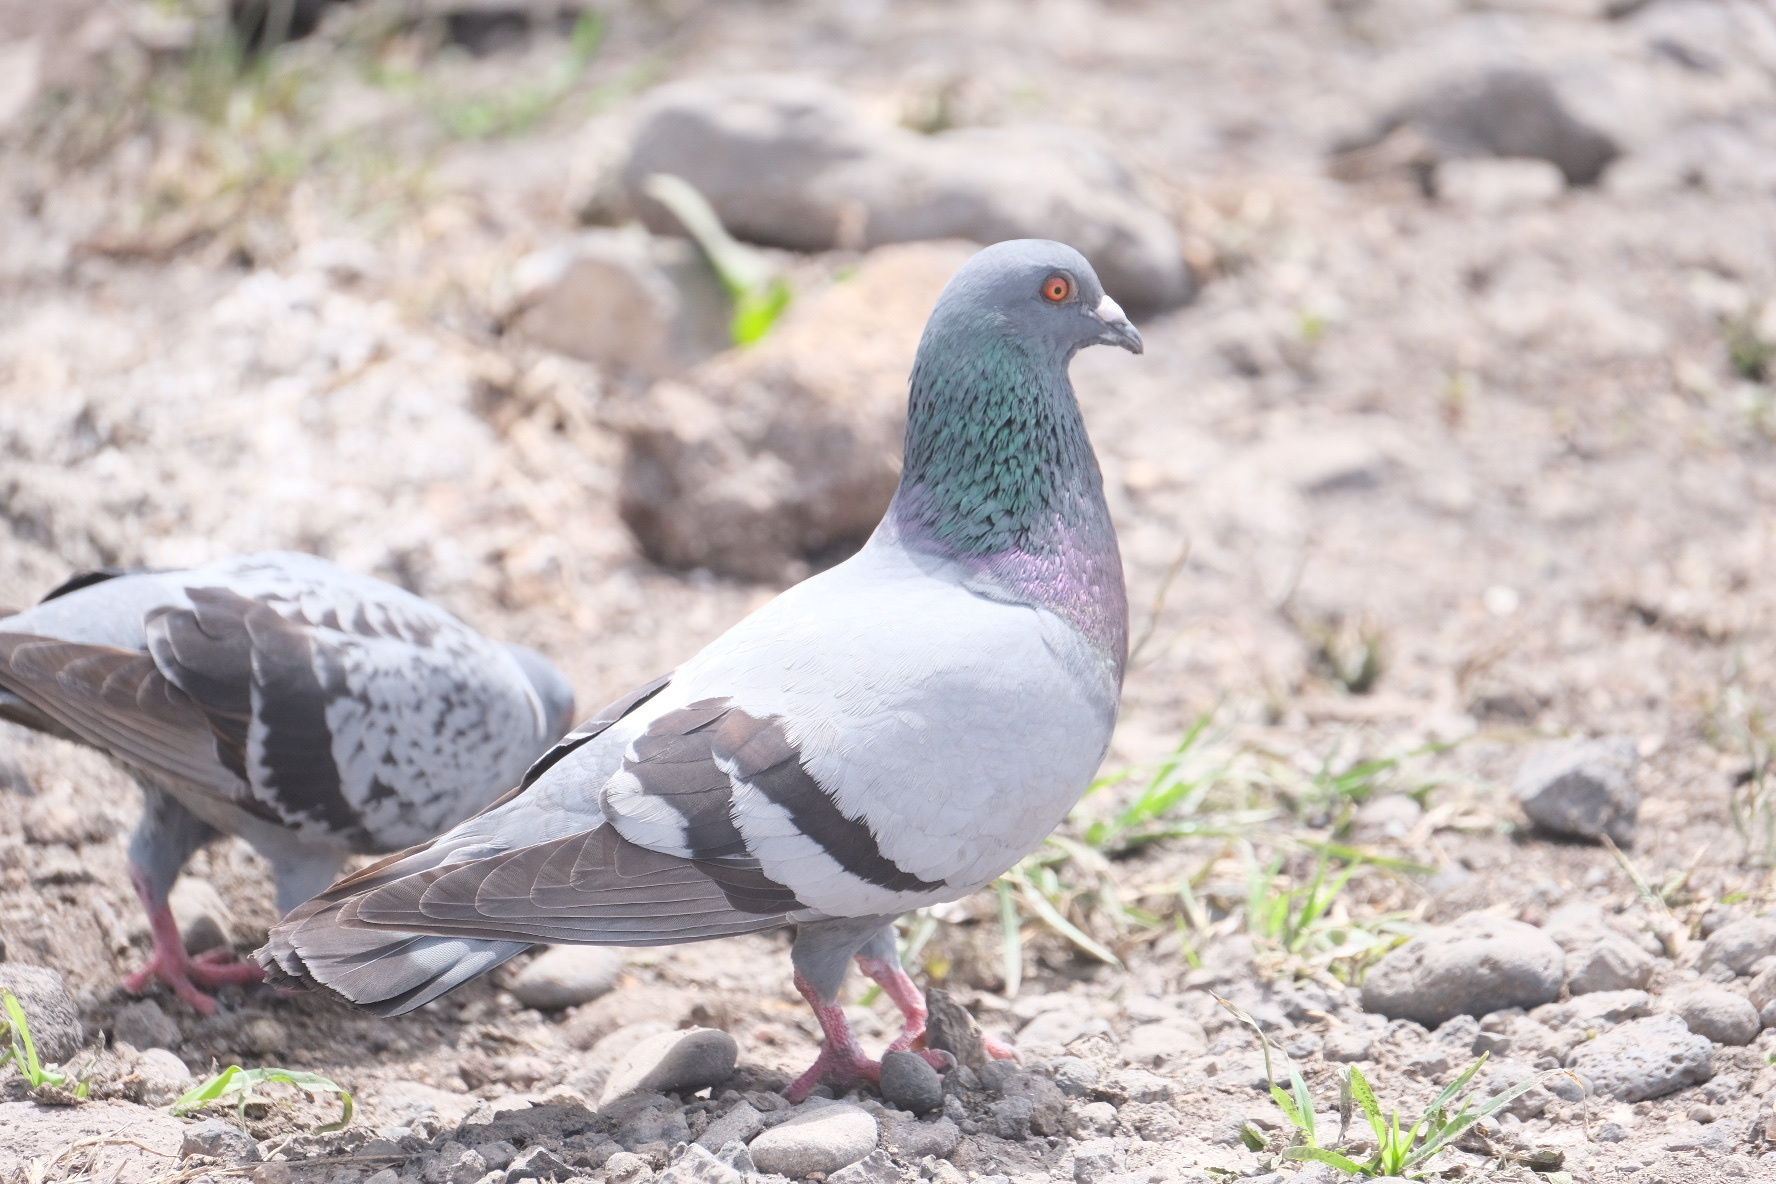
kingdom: Animalia
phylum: Chordata
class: Aves
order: Columbiformes
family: Columbidae
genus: Columba
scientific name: Columba livia
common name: Rock pigeon
